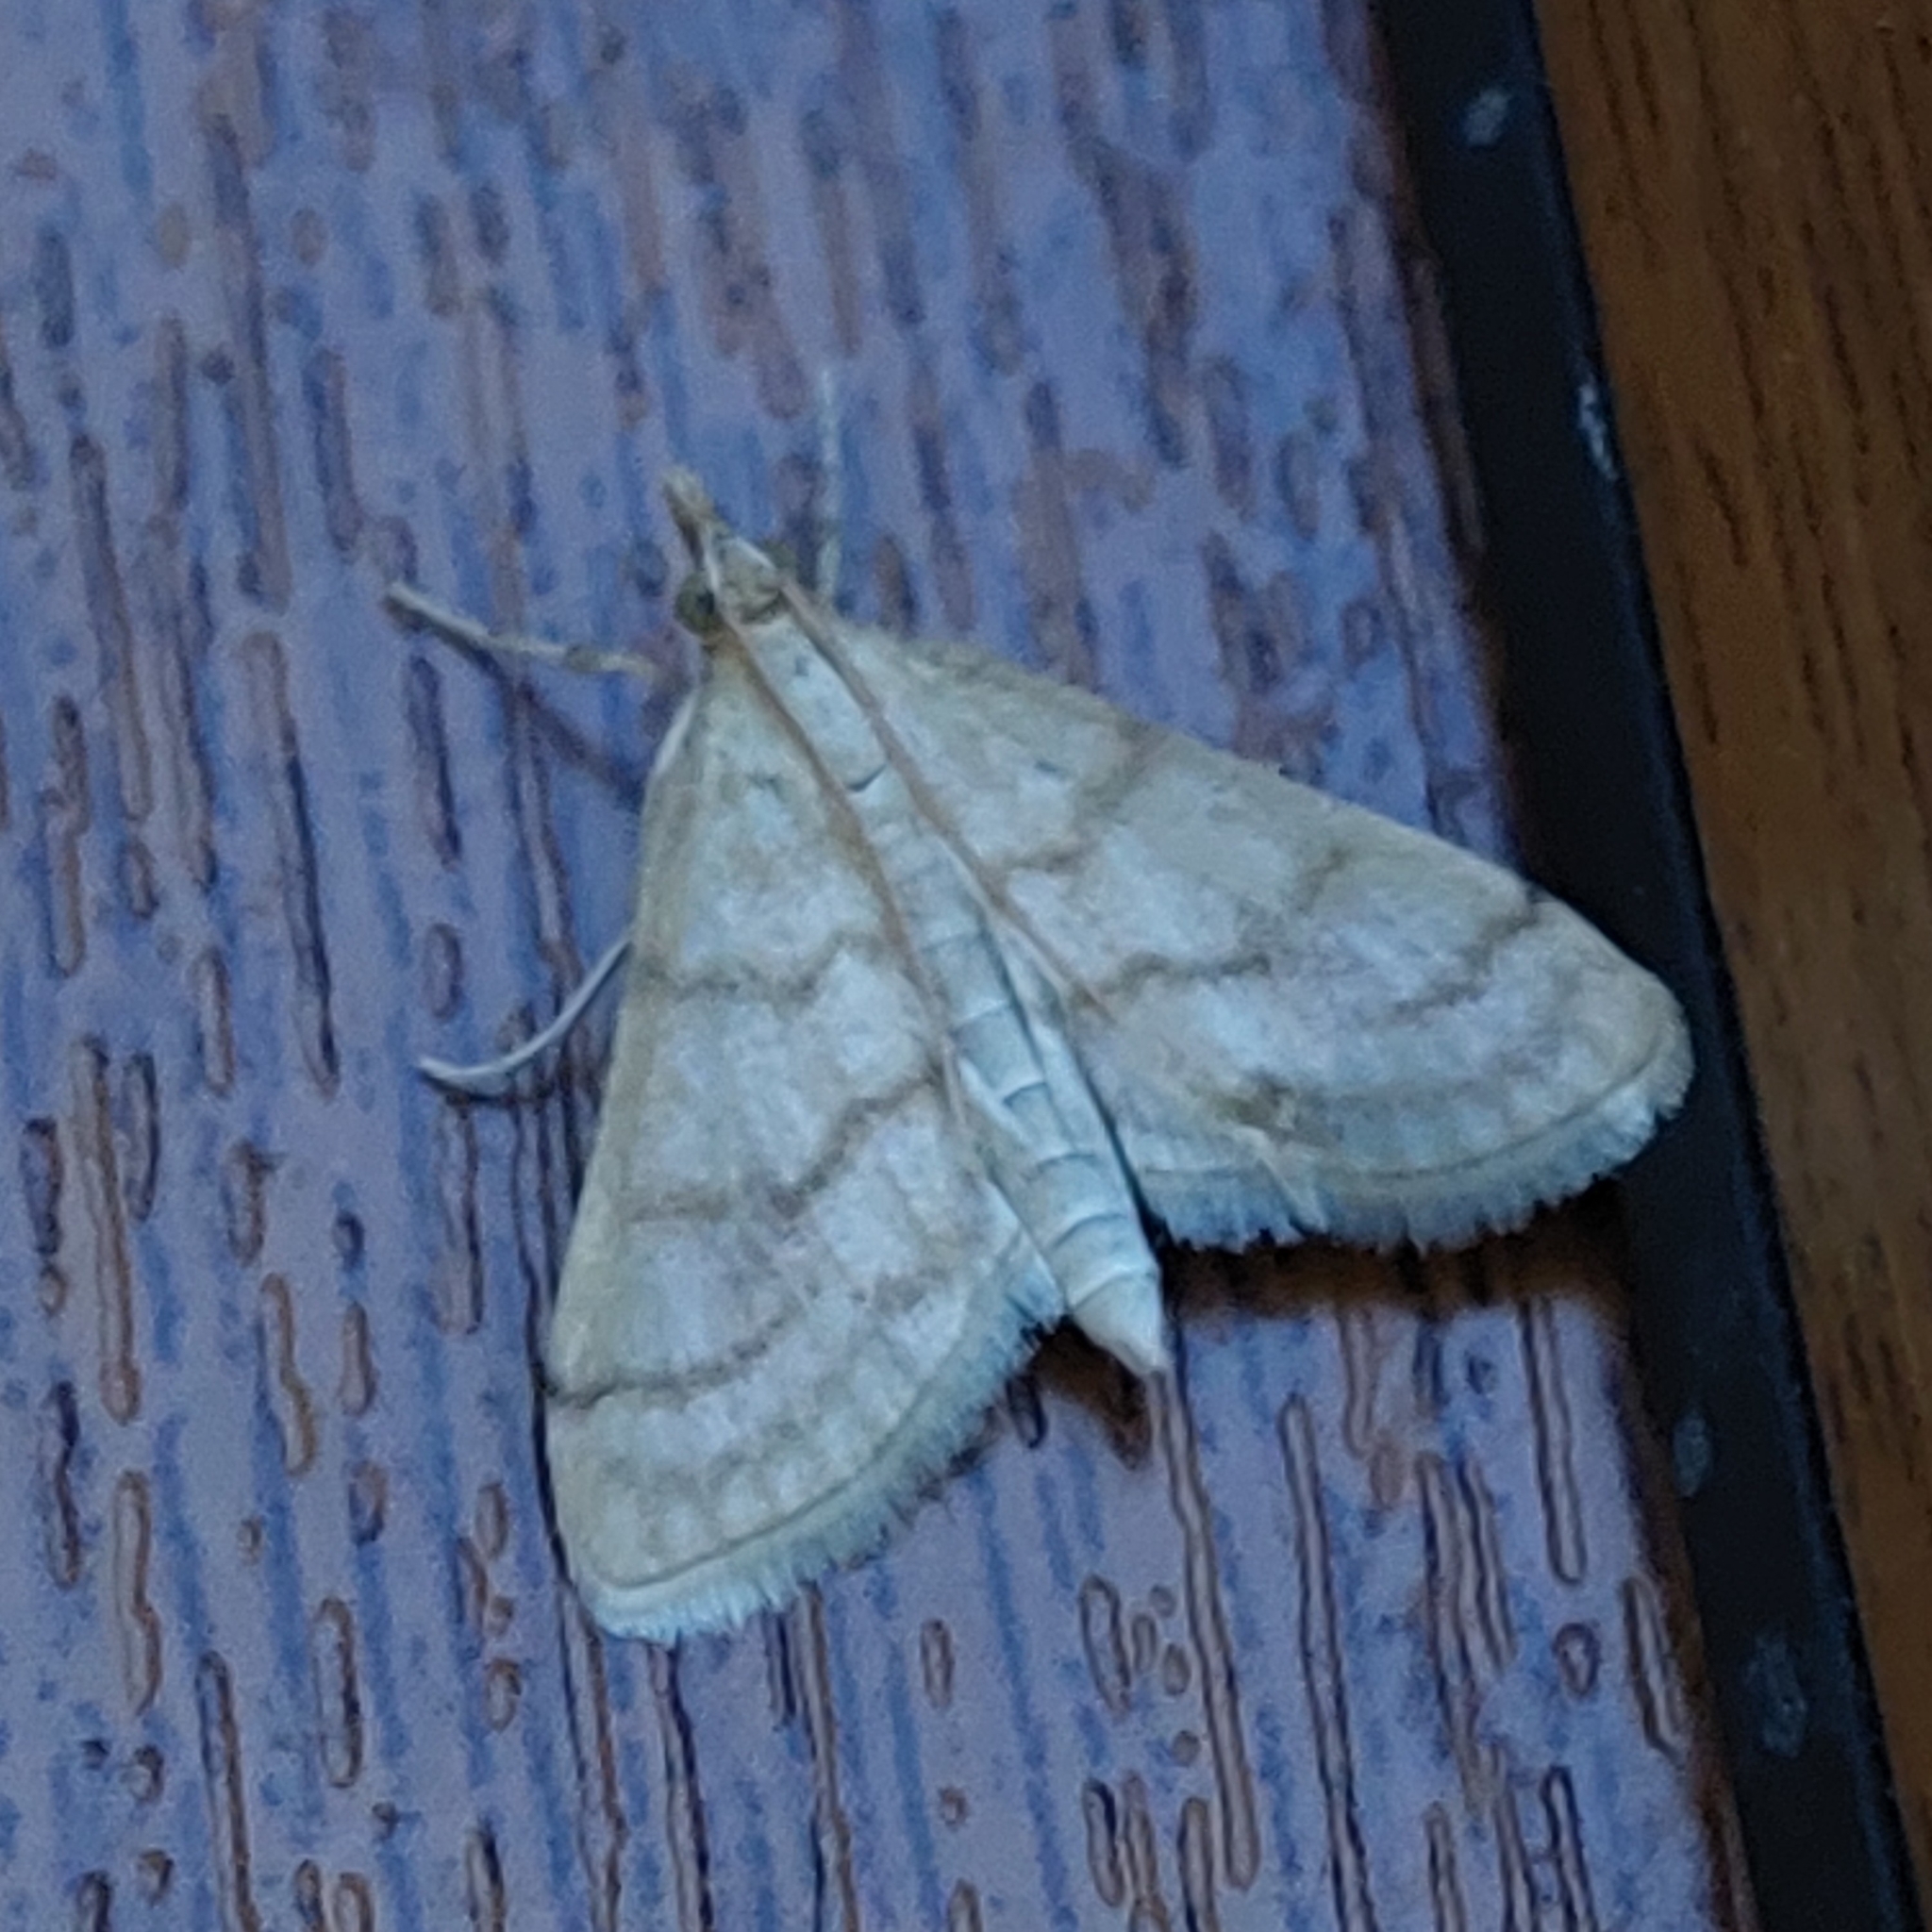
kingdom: Animalia
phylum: Arthropoda
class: Insecta
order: Lepidoptera
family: Crambidae
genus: Paracorsia
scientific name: Paracorsia repandalis
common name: Mullein moth
